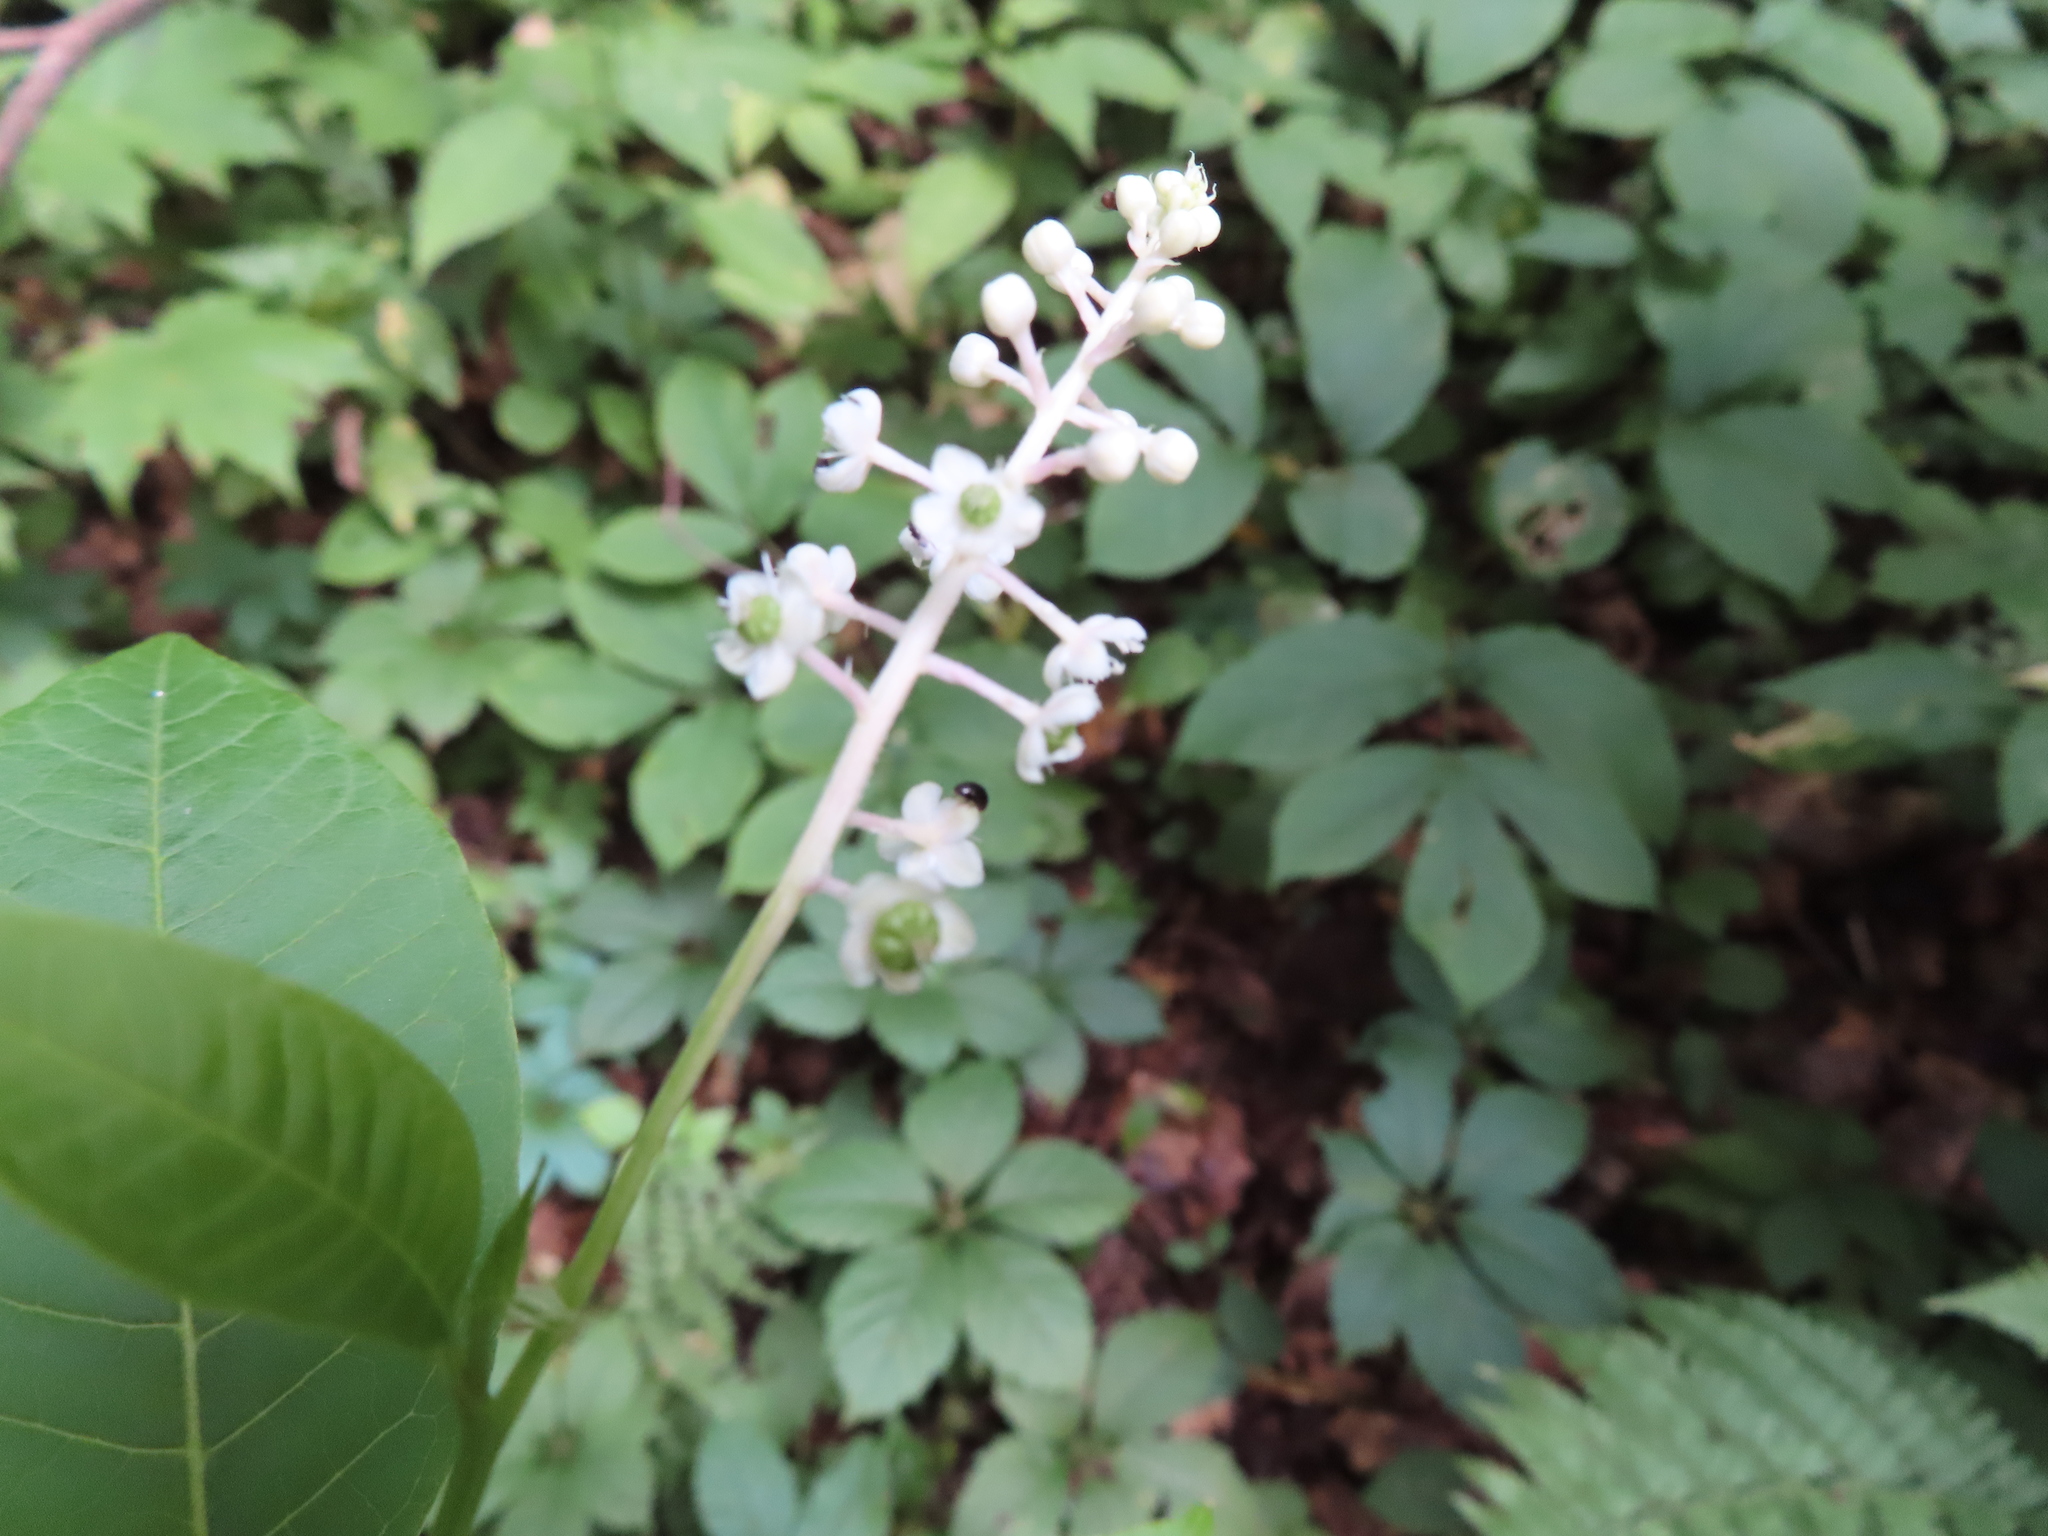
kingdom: Plantae
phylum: Tracheophyta
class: Magnoliopsida
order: Caryophyllales
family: Phytolaccaceae
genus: Phytolacca
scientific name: Phytolacca americana
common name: American pokeweed
